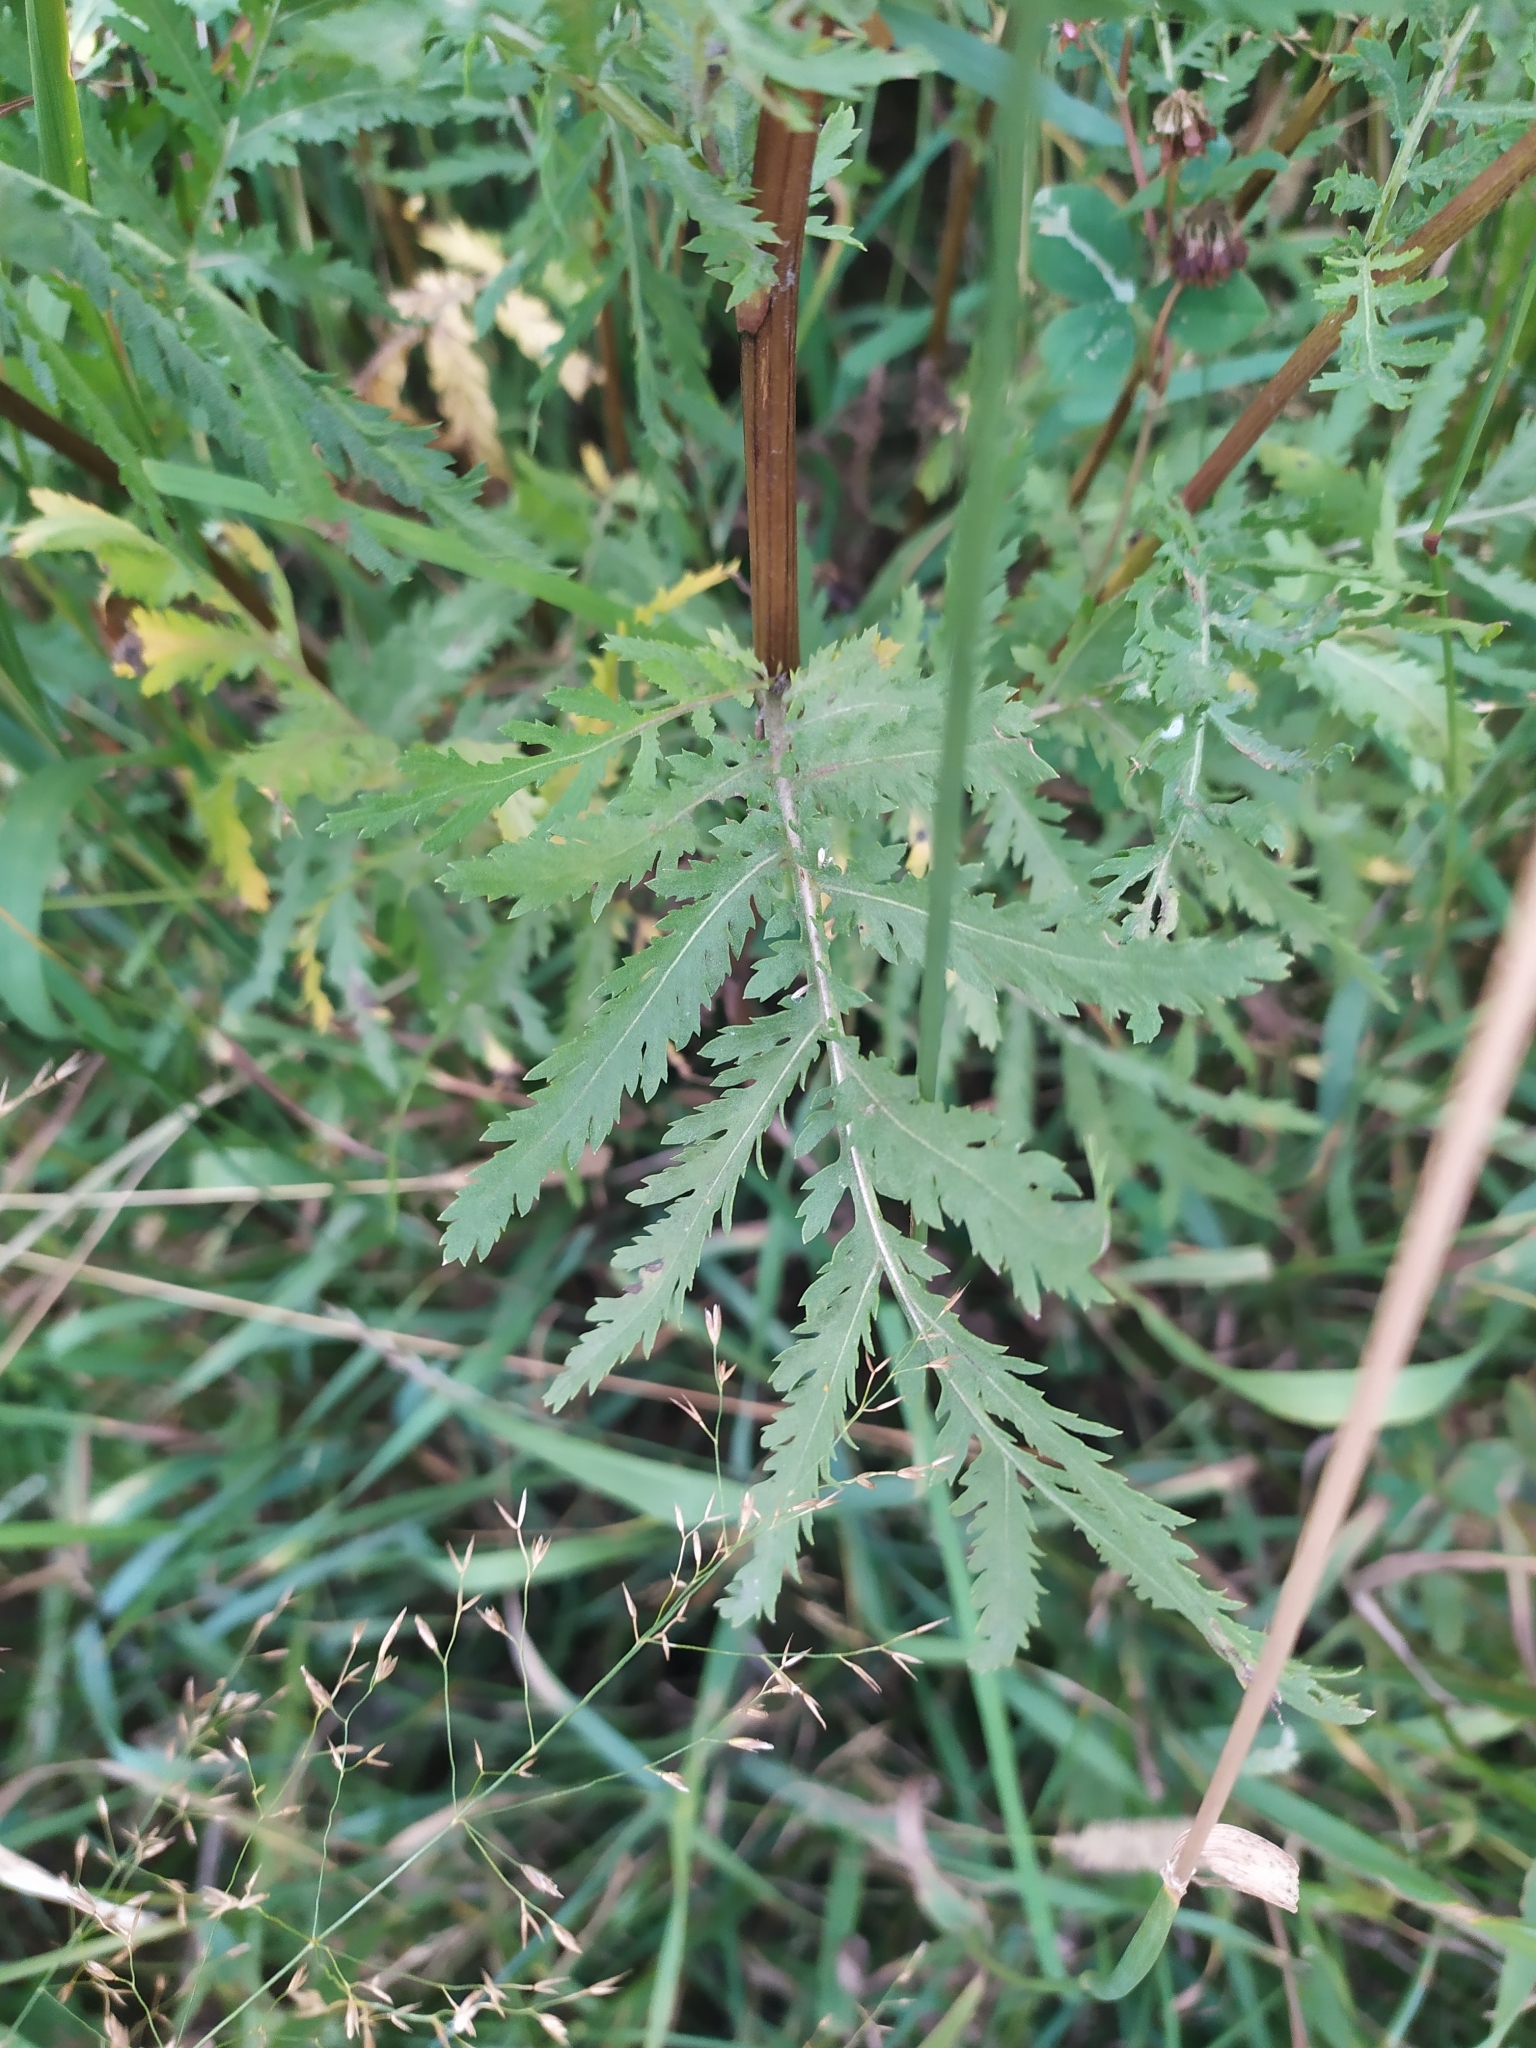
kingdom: Plantae
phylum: Tracheophyta
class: Magnoliopsida
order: Asterales
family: Asteraceae
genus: Tanacetum
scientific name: Tanacetum vulgare
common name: Common tansy
